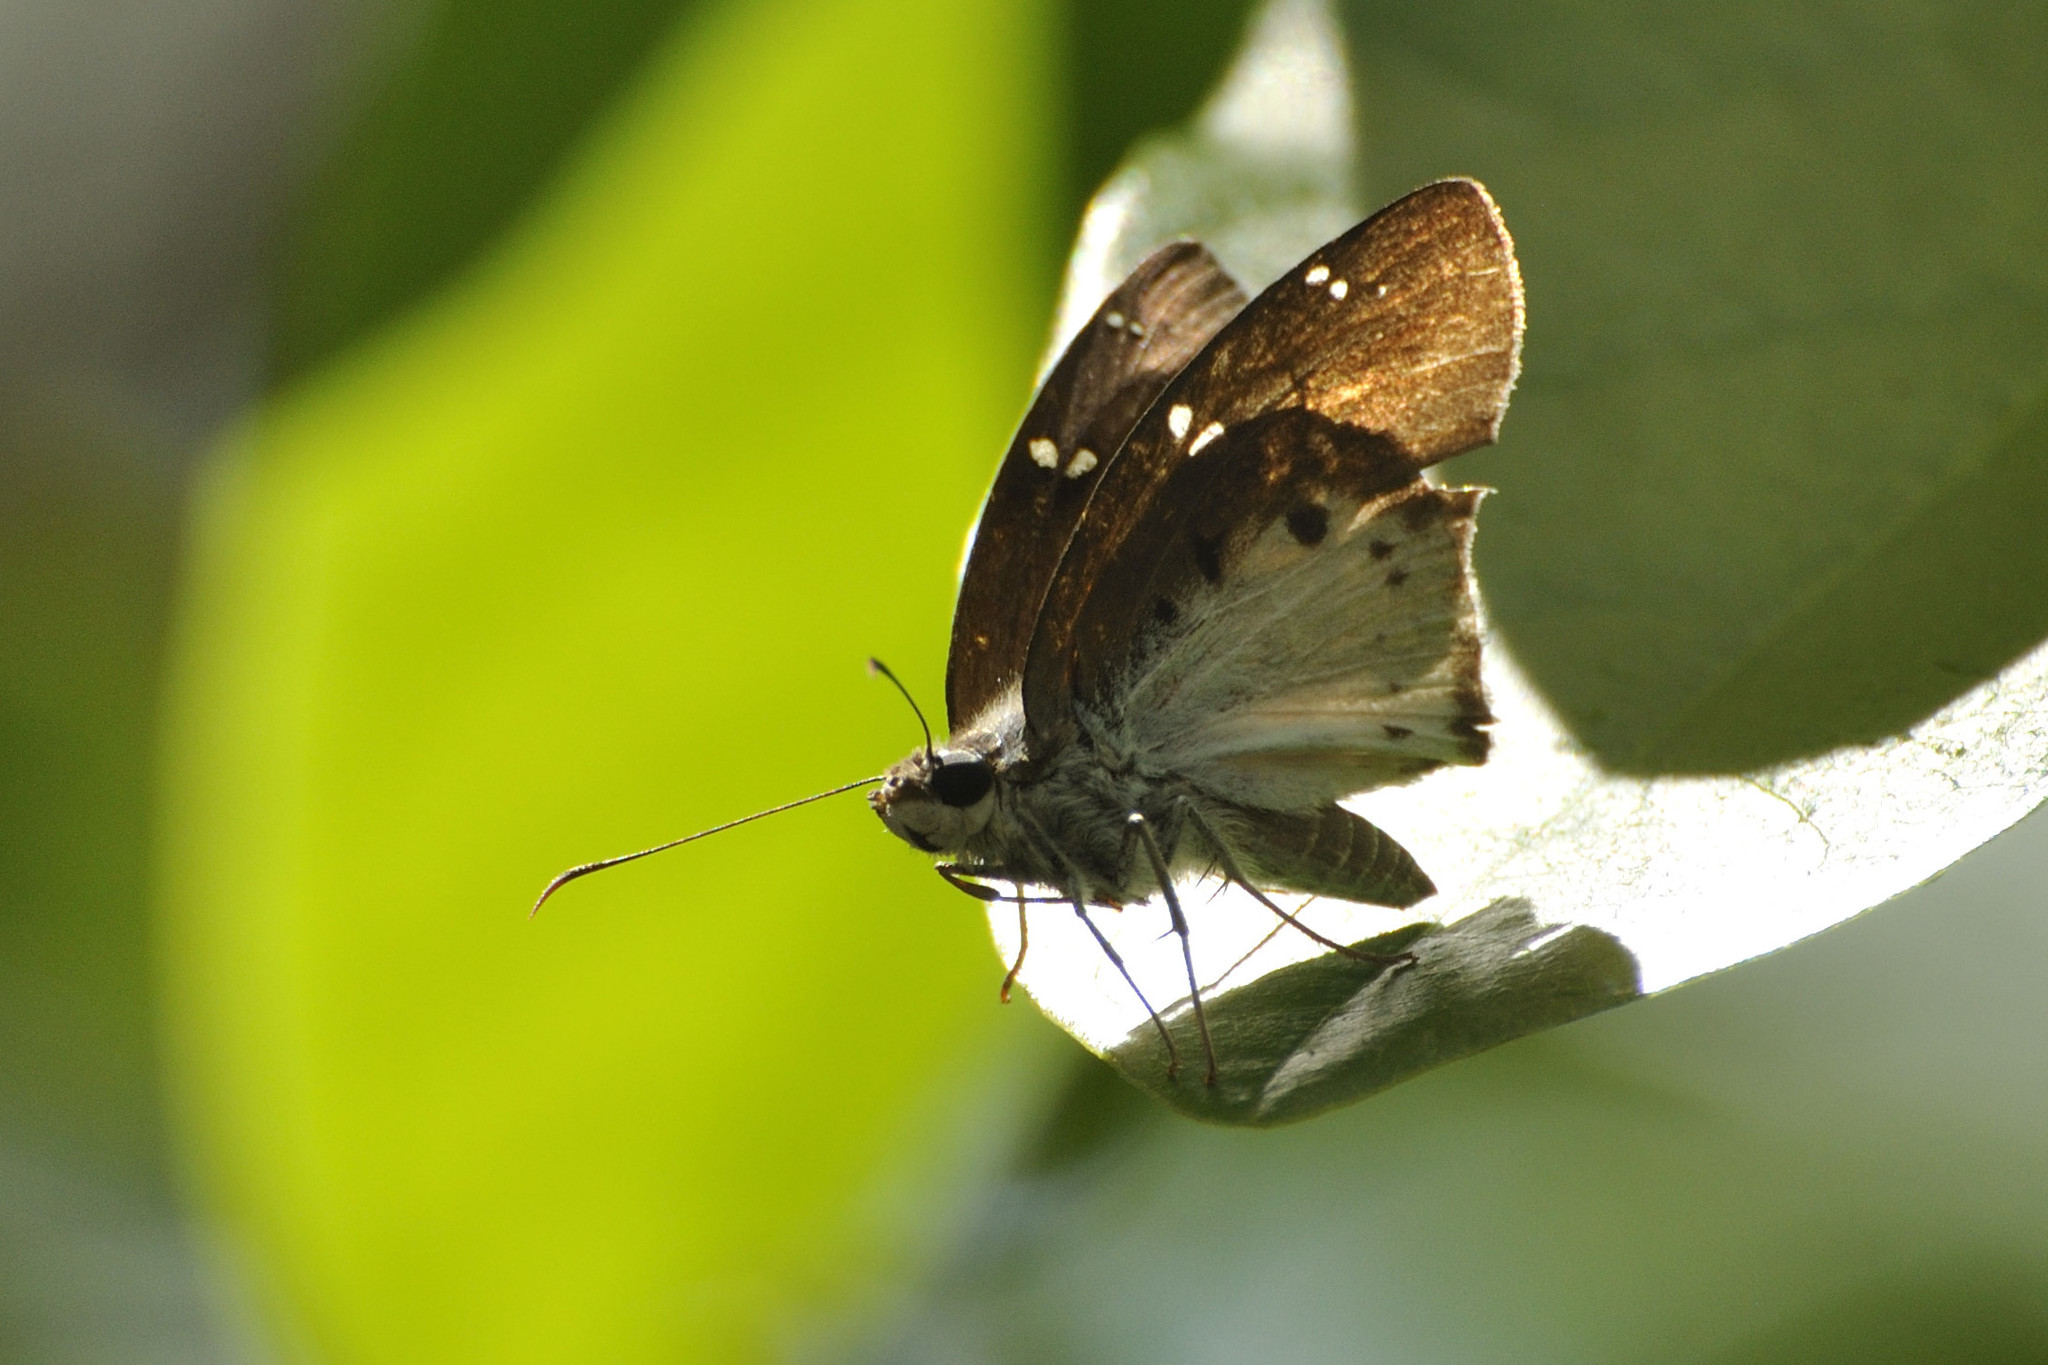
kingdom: Animalia
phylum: Arthropoda
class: Insecta
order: Lepidoptera
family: Hesperiidae
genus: Tagiades
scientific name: Tagiades flesus
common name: Clouded flat
